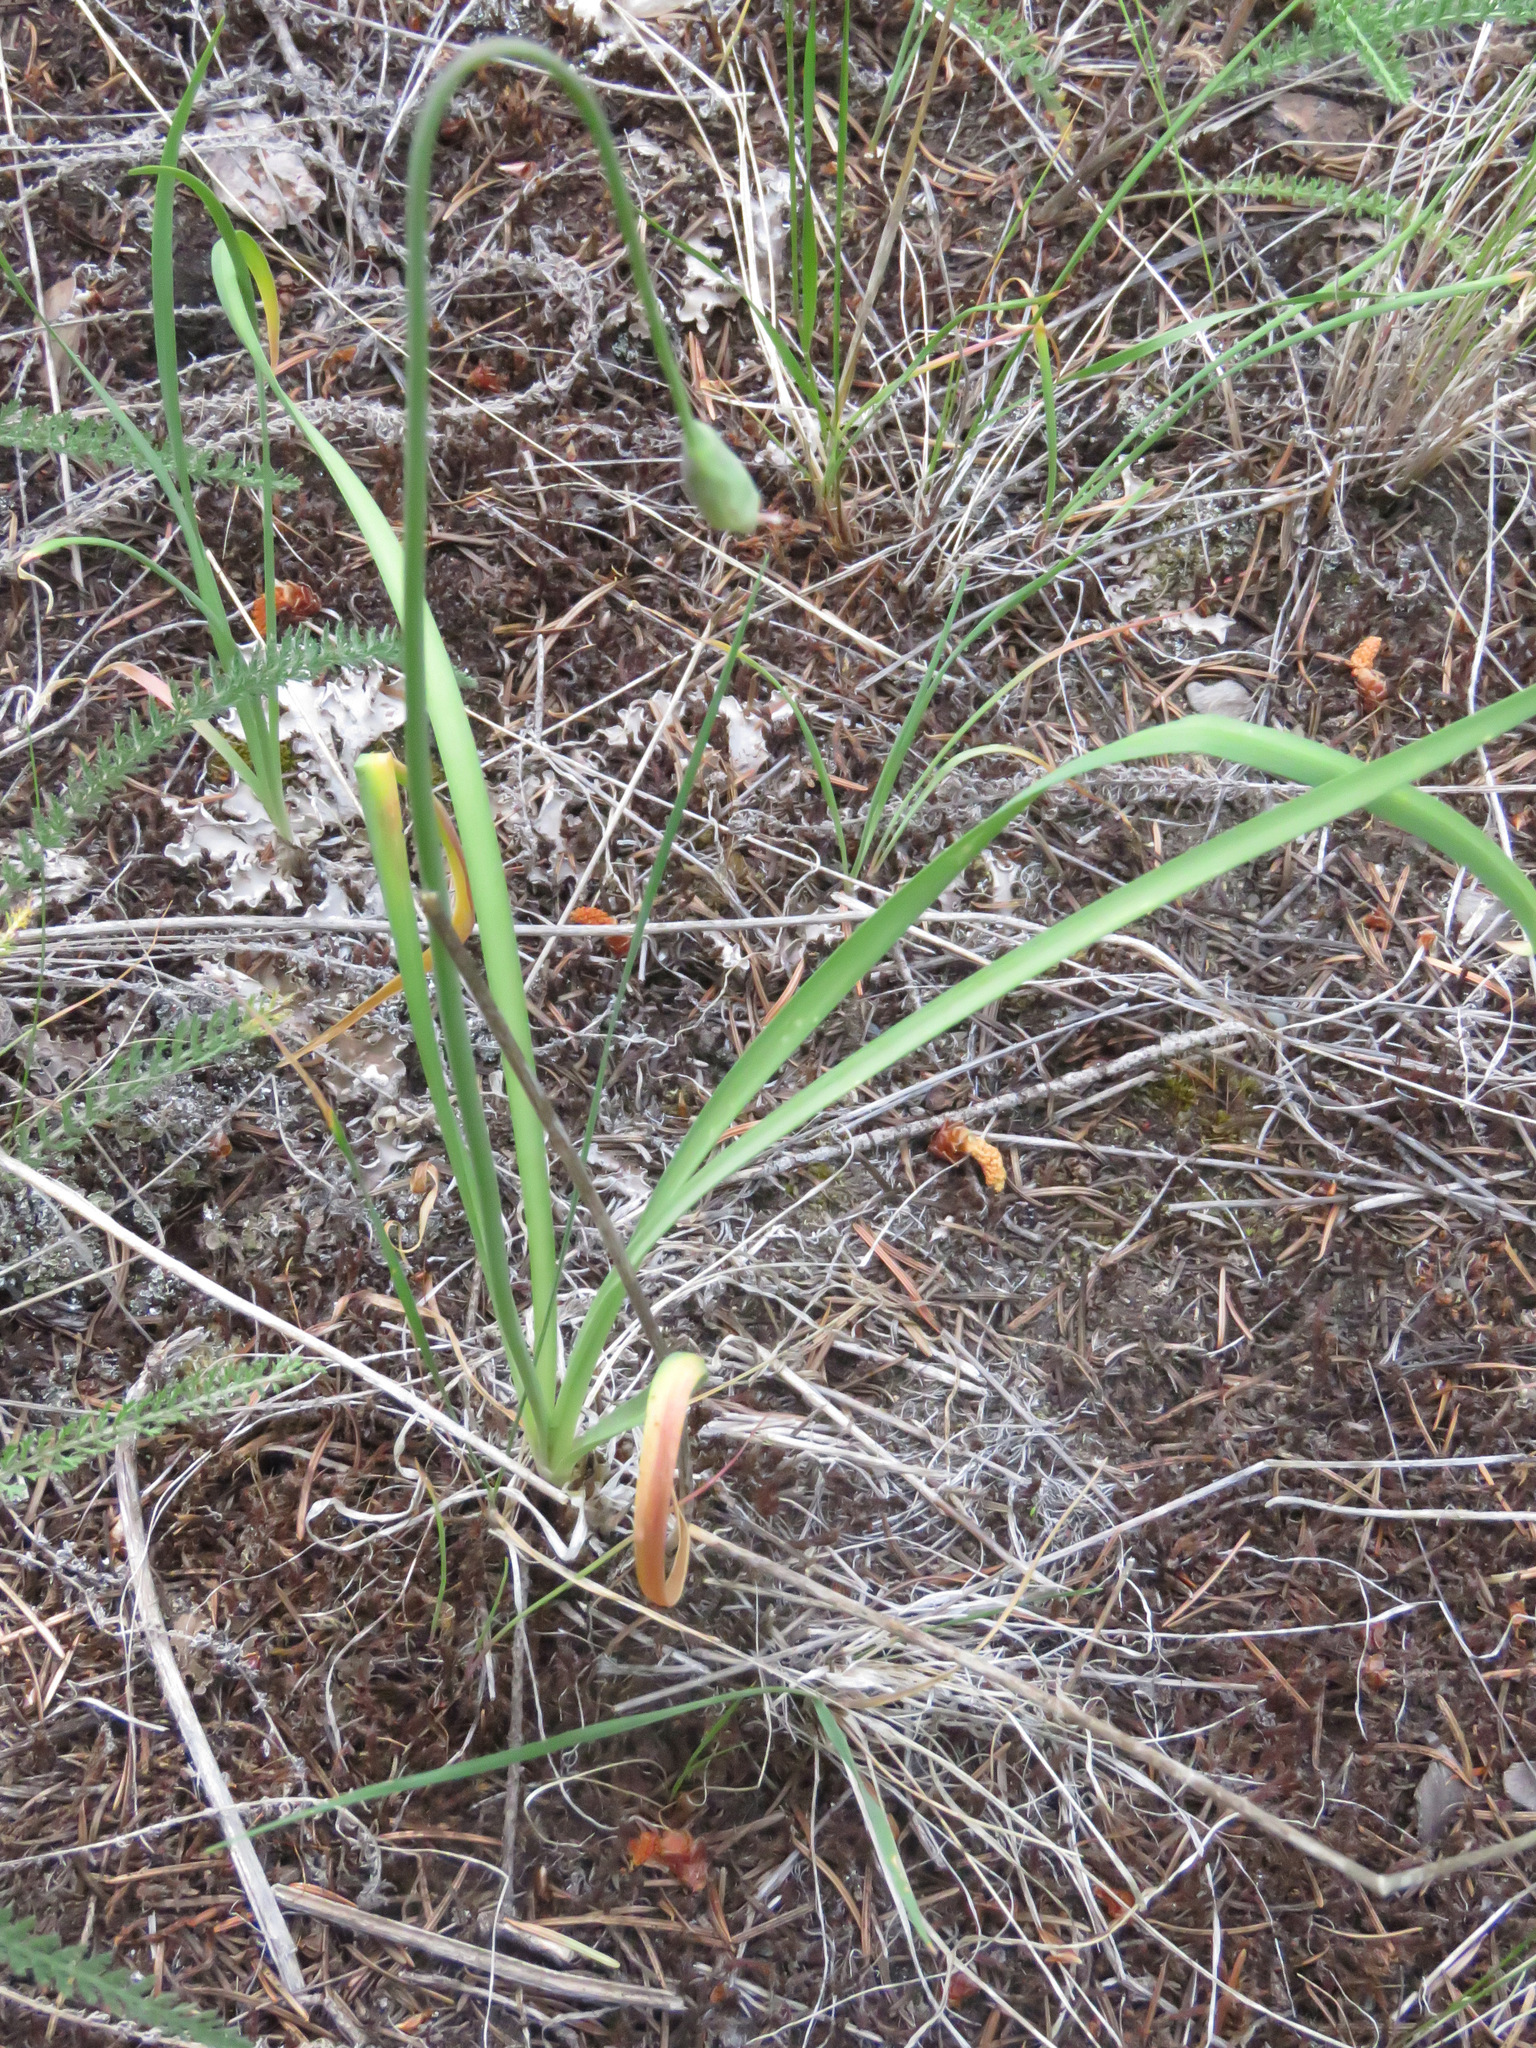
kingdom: Plantae
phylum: Tracheophyta
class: Liliopsida
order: Asparagales
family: Amaryllidaceae
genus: Allium
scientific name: Allium cernuum
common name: Nodding onion
